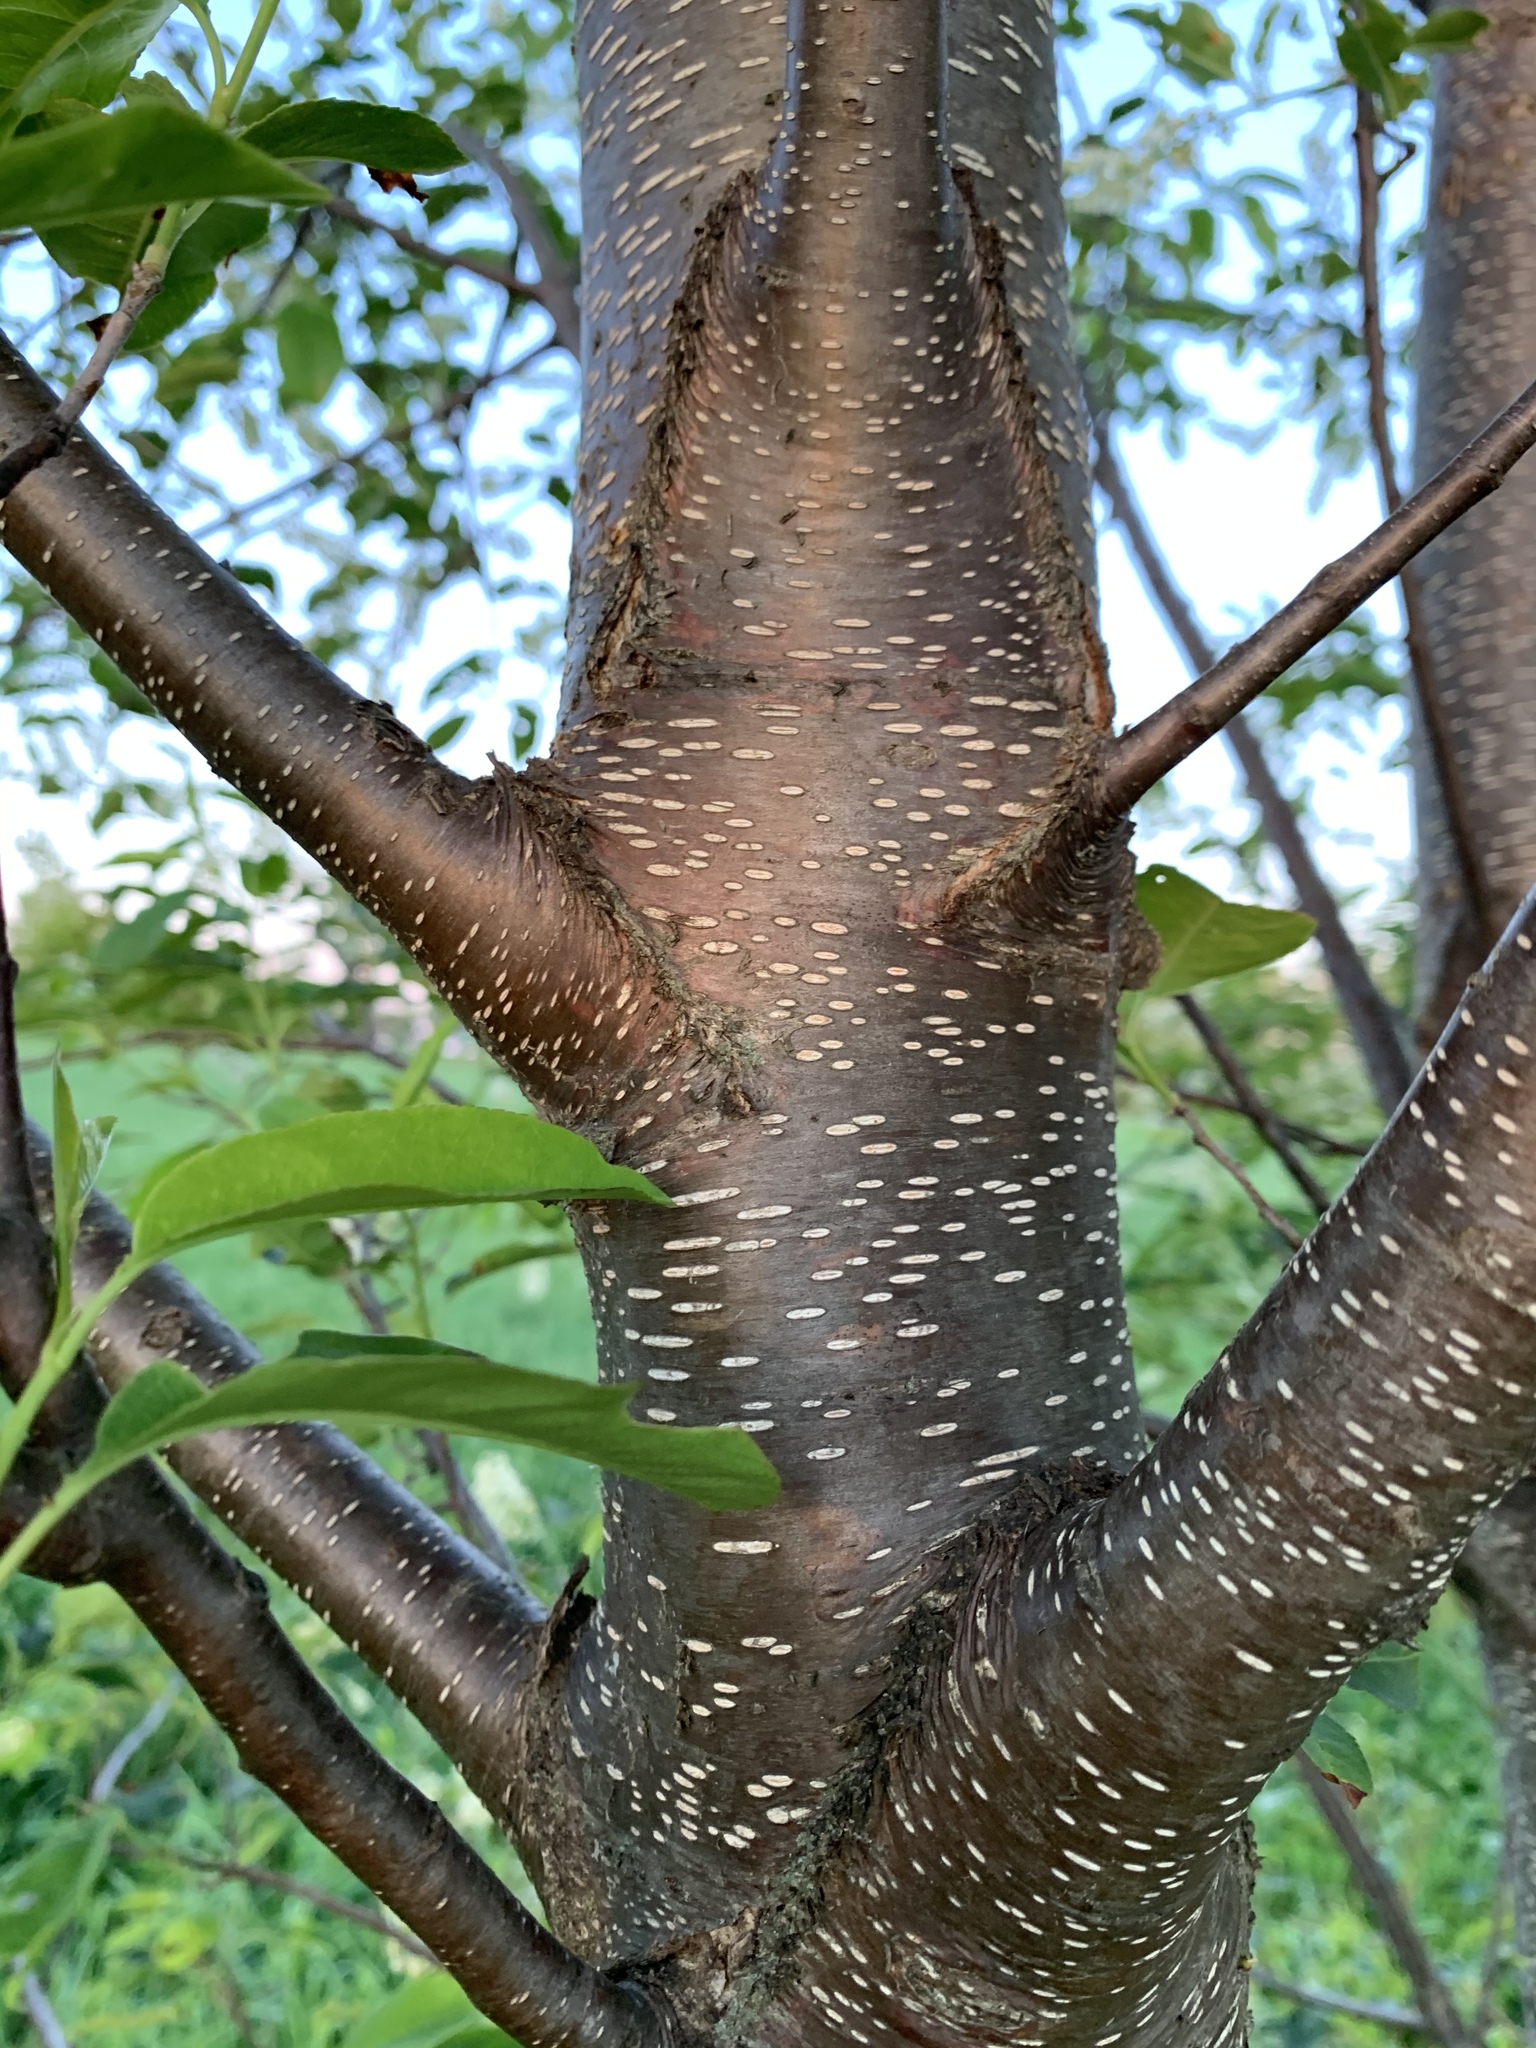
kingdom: Plantae
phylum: Tracheophyta
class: Magnoliopsida
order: Rosales
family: Rosaceae
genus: Prunus
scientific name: Prunus virginiana
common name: Chokecherry
